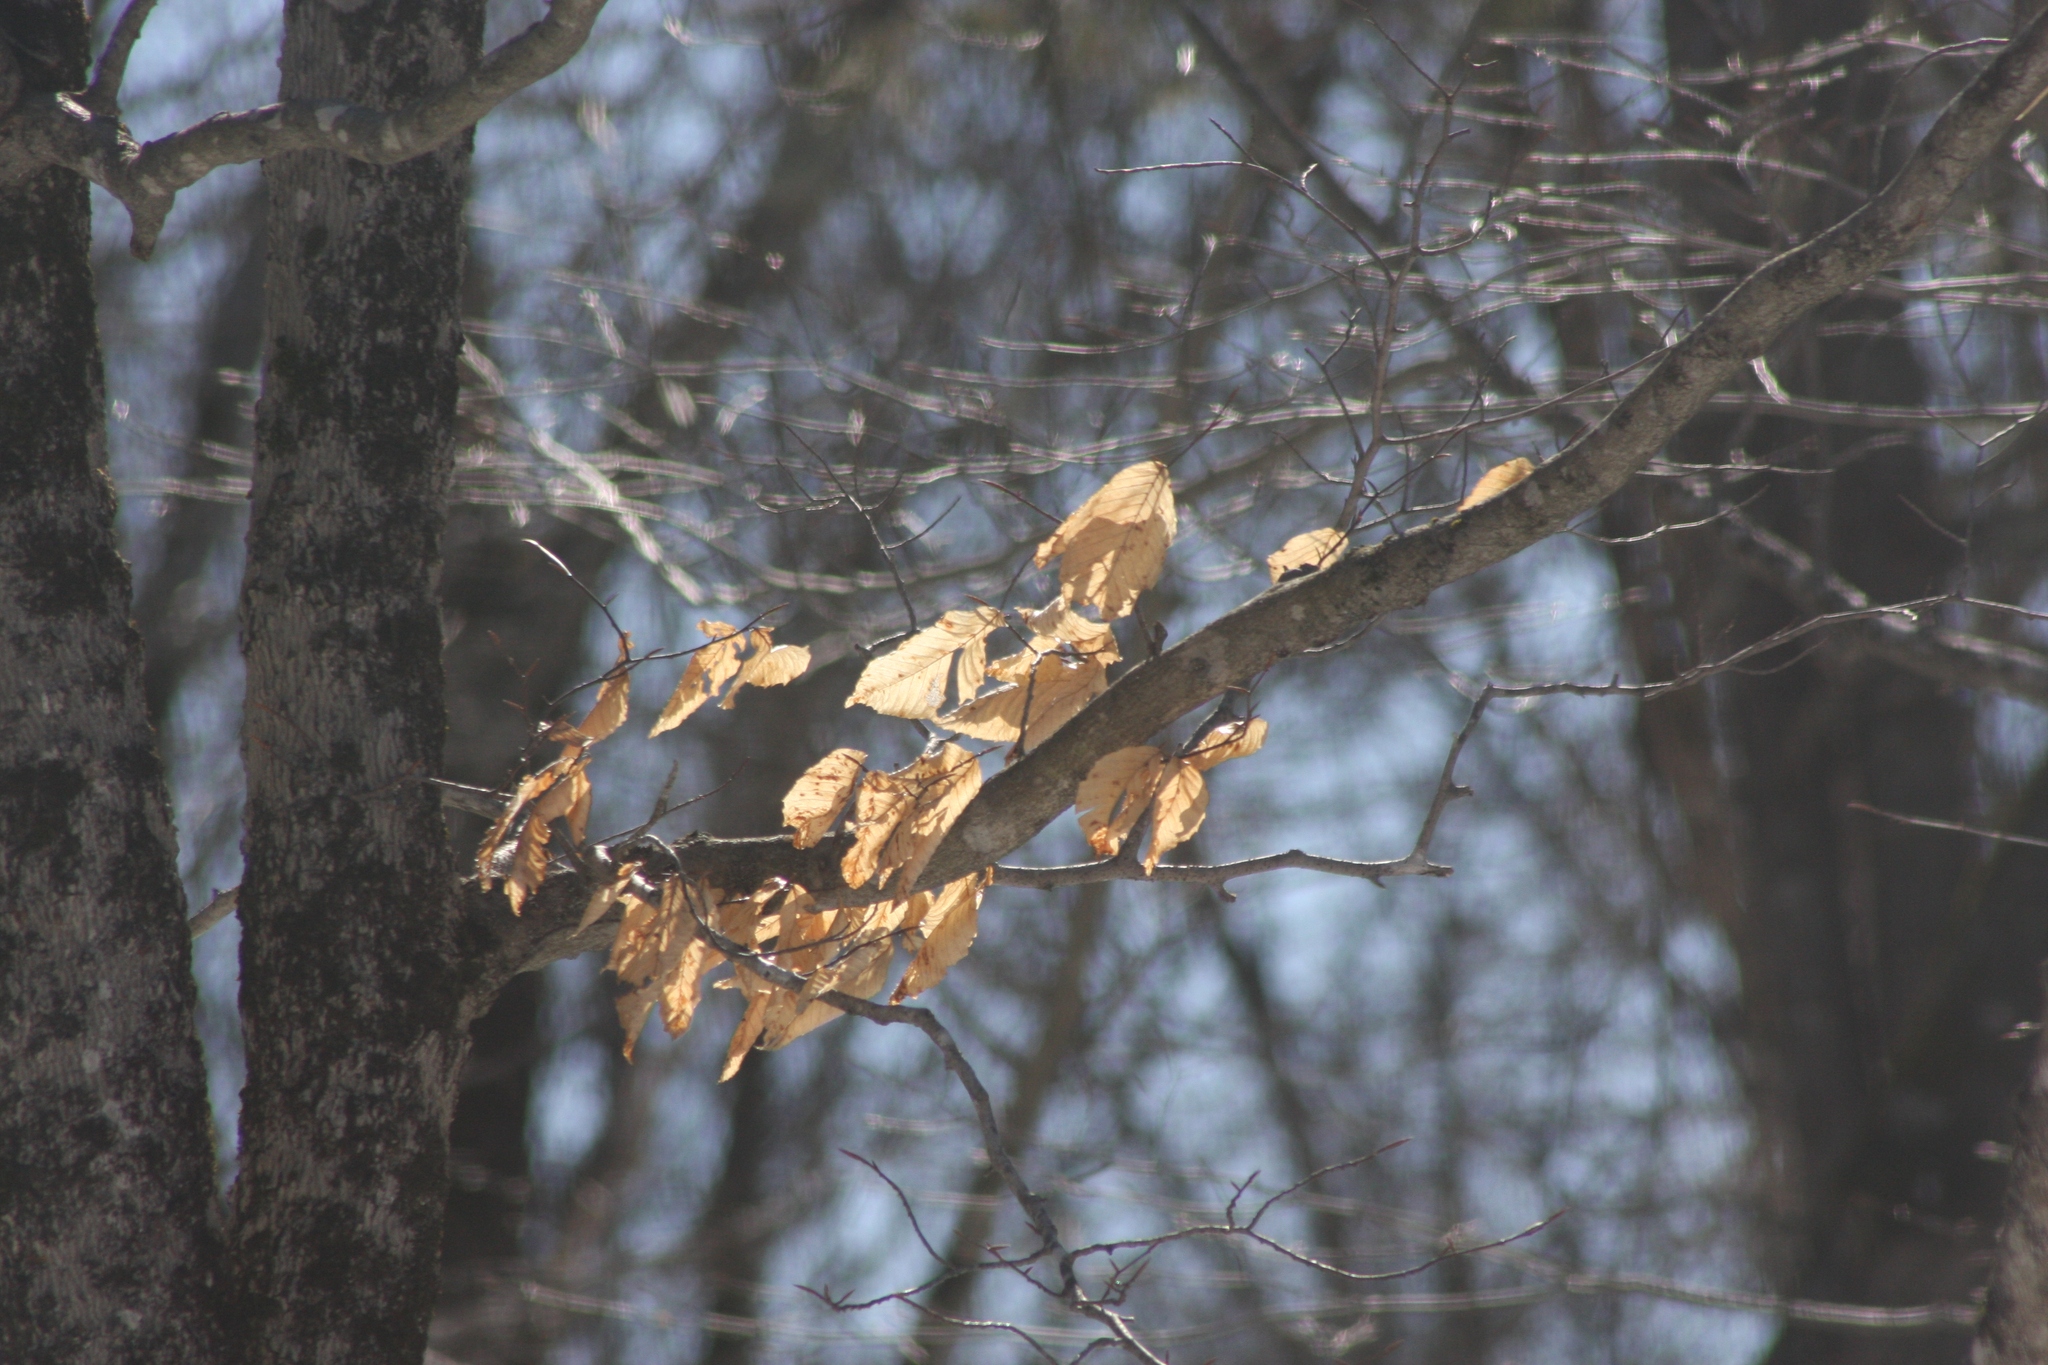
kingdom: Plantae
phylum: Tracheophyta
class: Magnoliopsida
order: Fagales
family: Fagaceae
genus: Fagus
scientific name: Fagus grandifolia
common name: American beech
